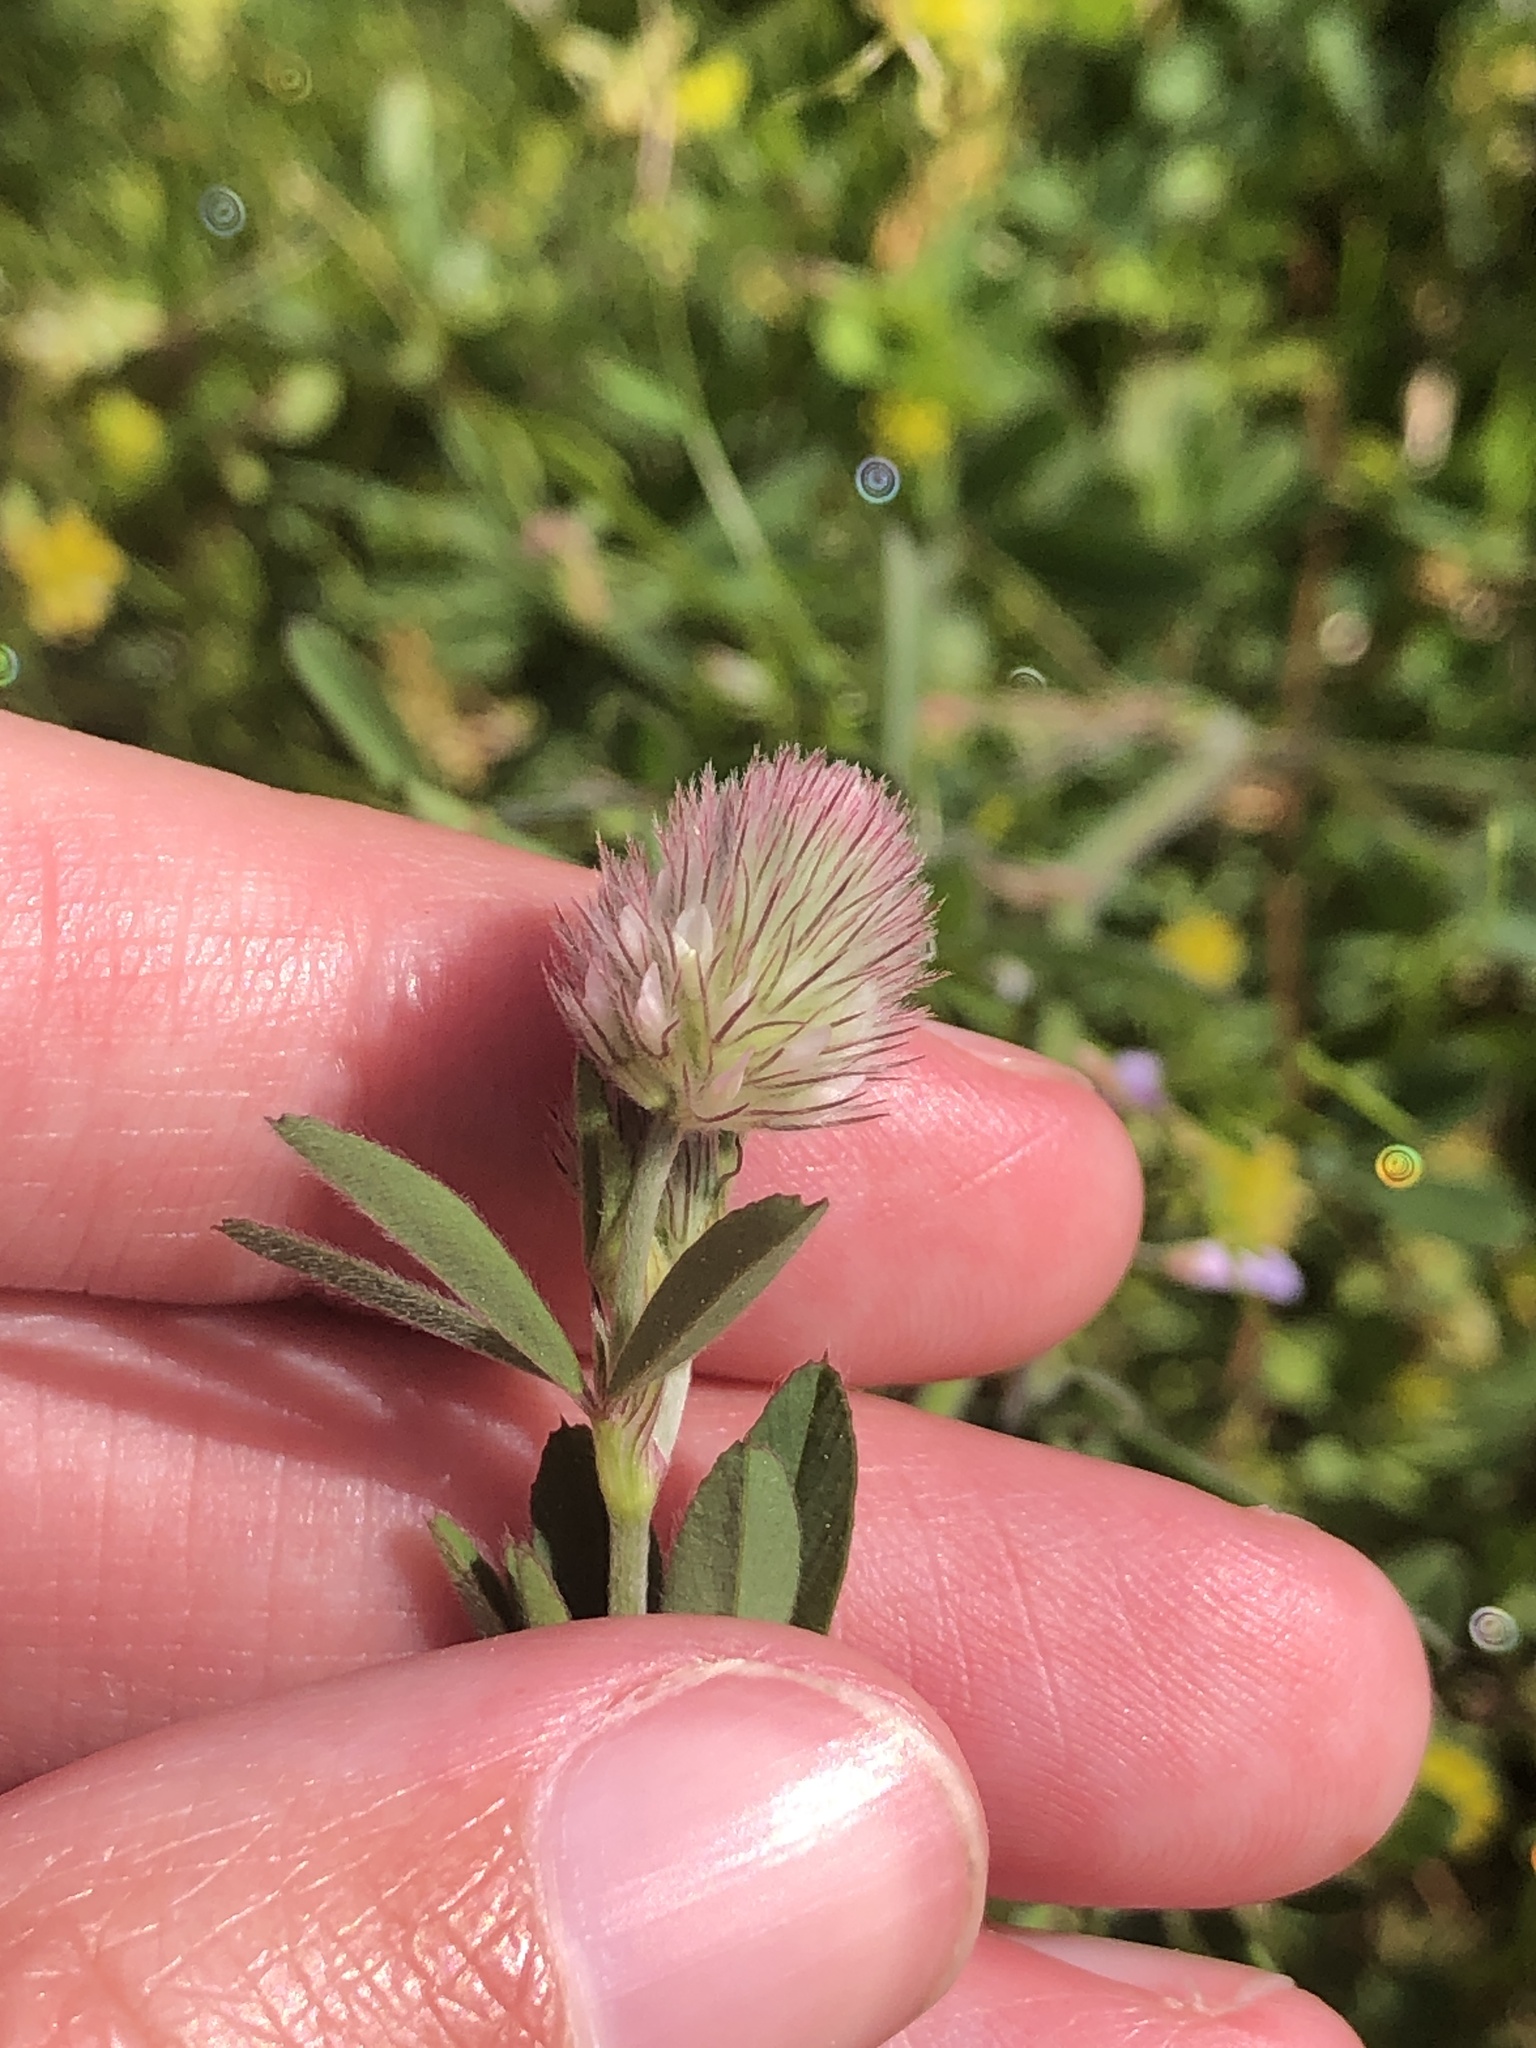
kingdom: Plantae
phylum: Tracheophyta
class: Magnoliopsida
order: Fabales
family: Fabaceae
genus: Trifolium
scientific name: Trifolium arvense
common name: Hare's-foot clover
